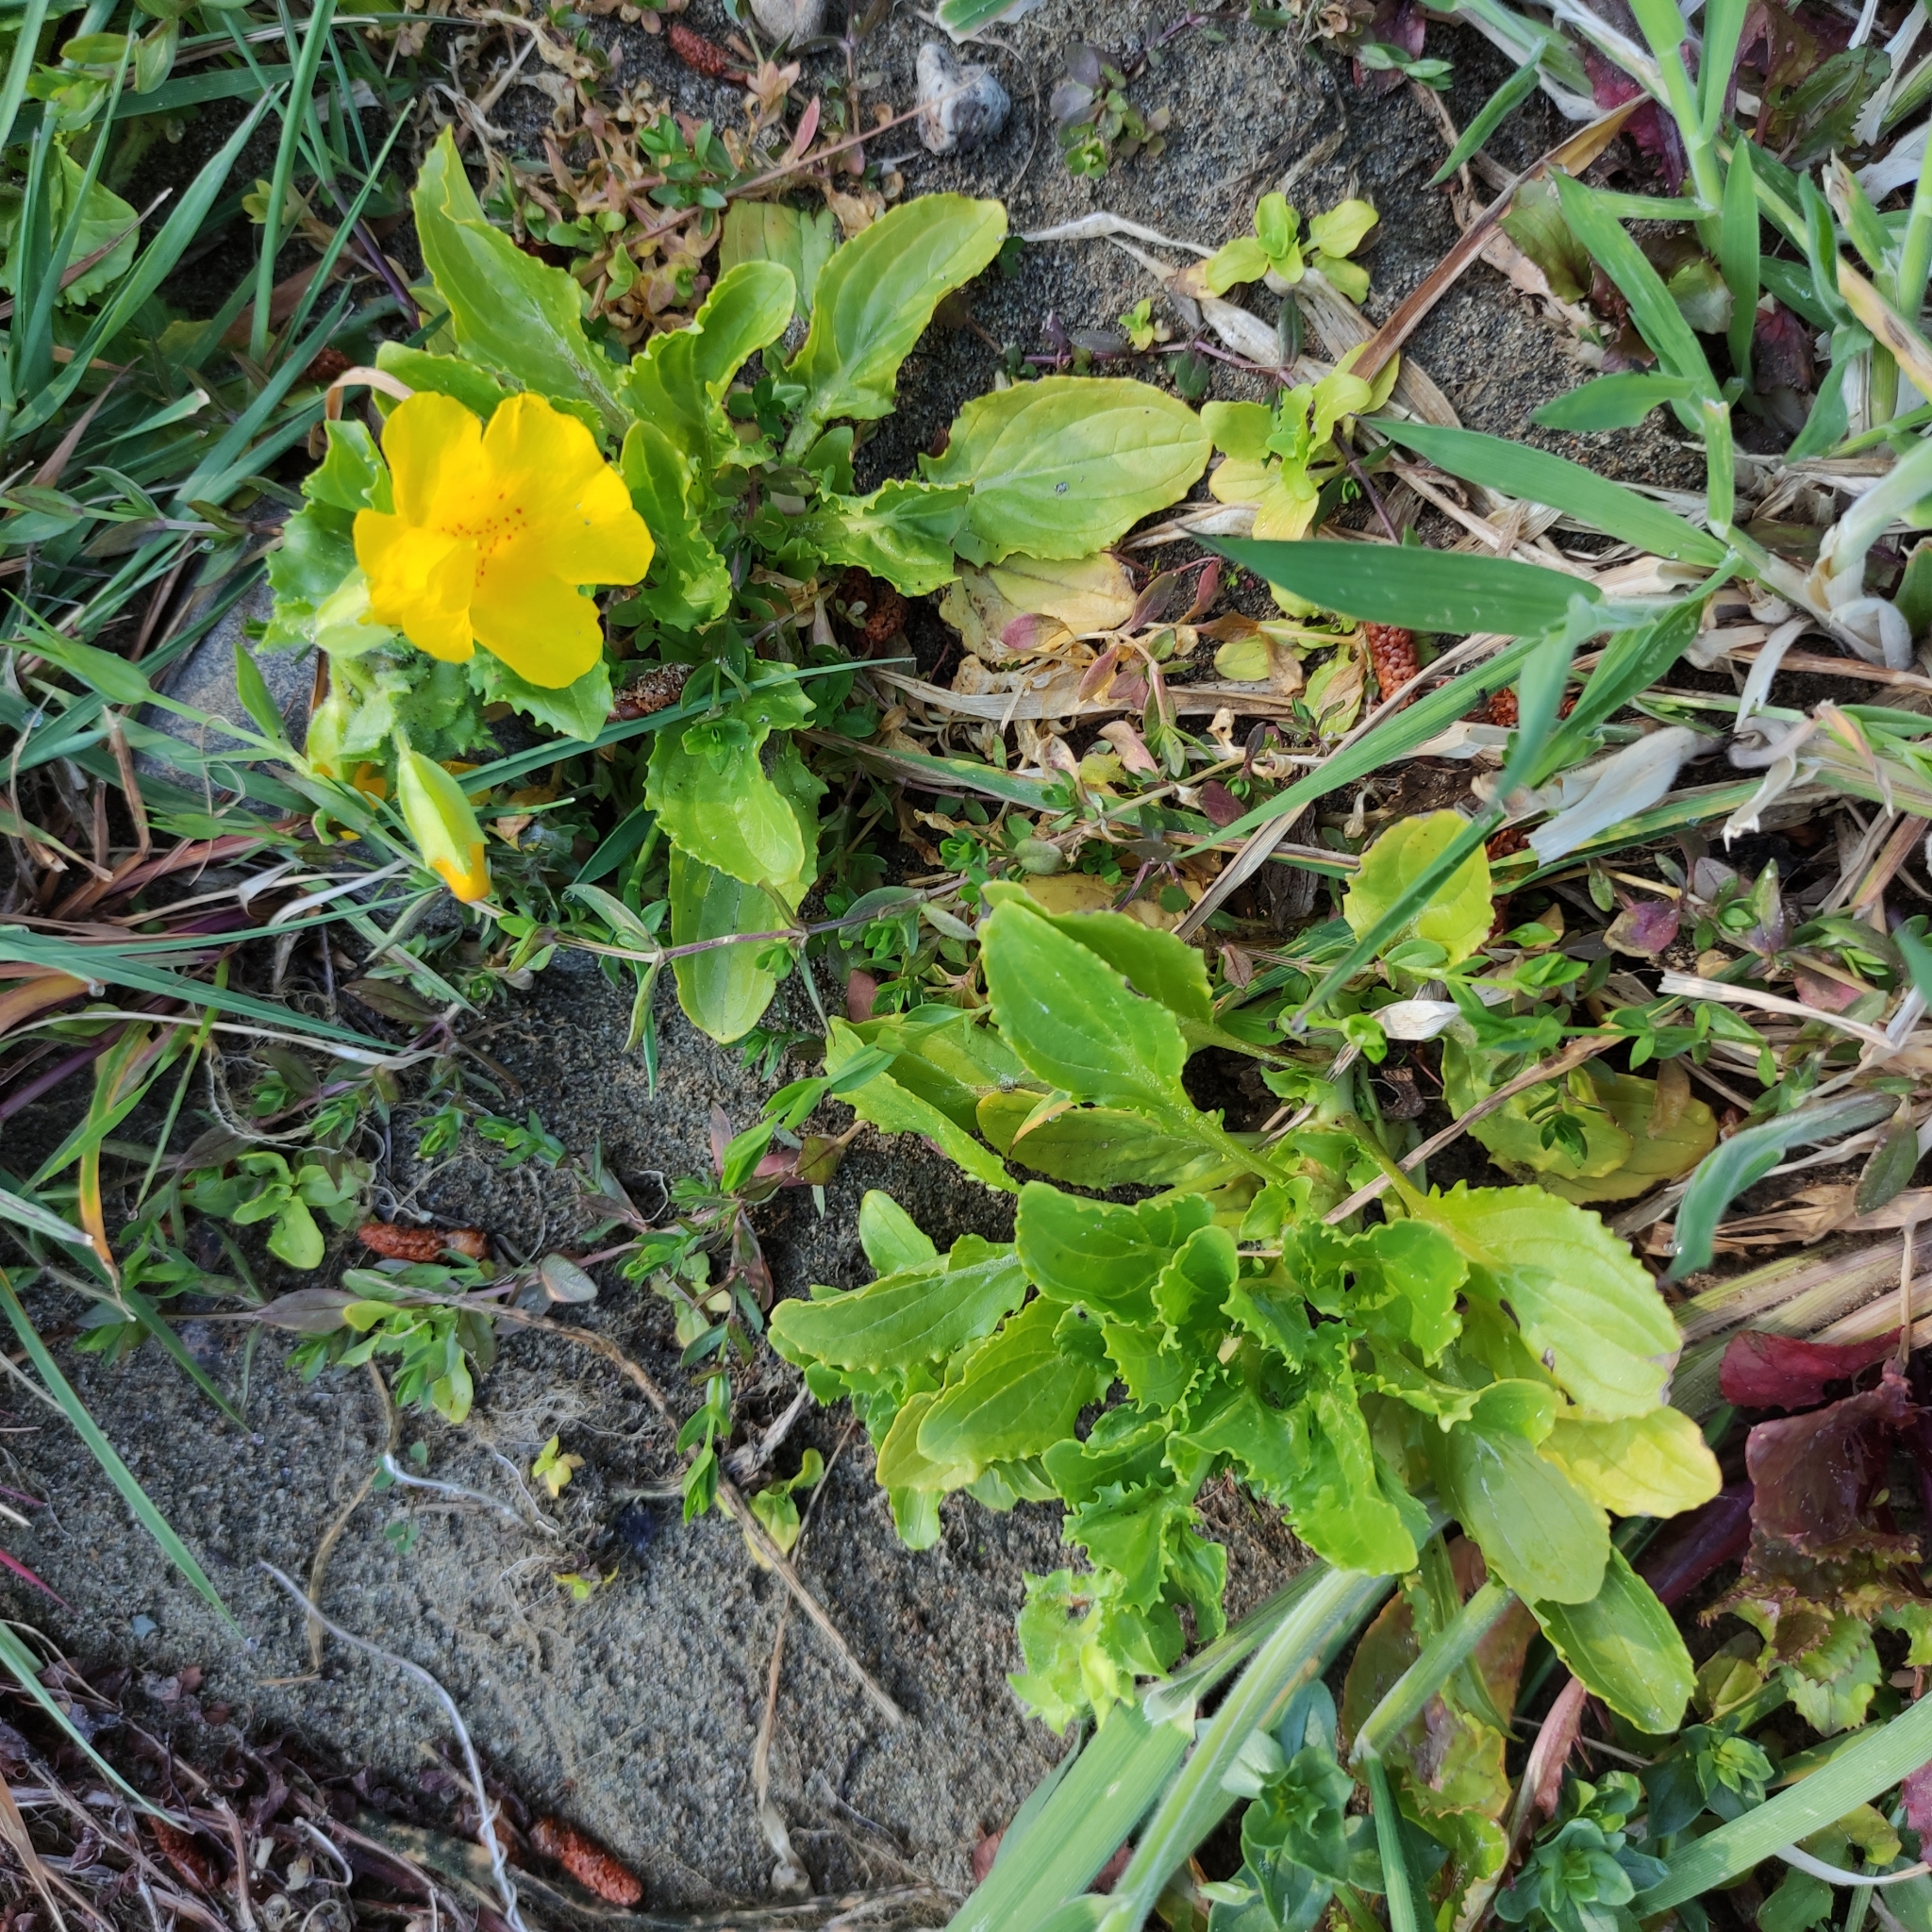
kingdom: Plantae
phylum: Tracheophyta
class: Magnoliopsida
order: Lamiales
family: Phrymaceae
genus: Erythranthe
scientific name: Erythranthe guttata
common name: Monkeyflower
